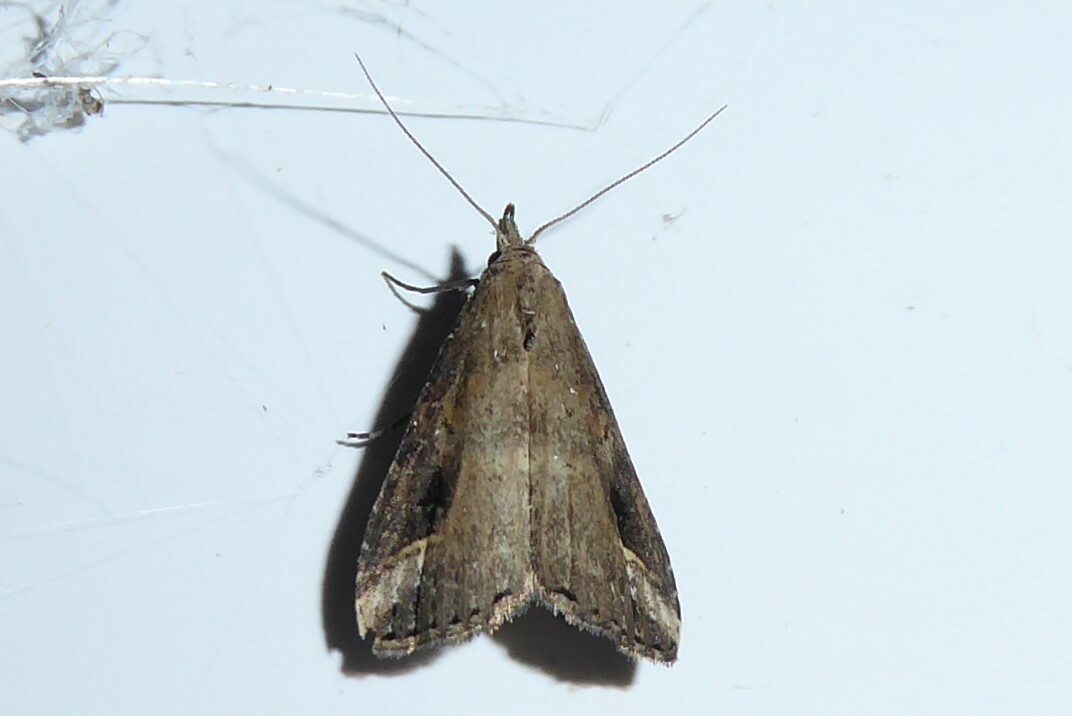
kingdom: Animalia
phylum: Arthropoda
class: Insecta
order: Lepidoptera
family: Erebidae
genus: Schrankia
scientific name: Schrankia costaestrigalis
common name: Pinion-streaked snout
